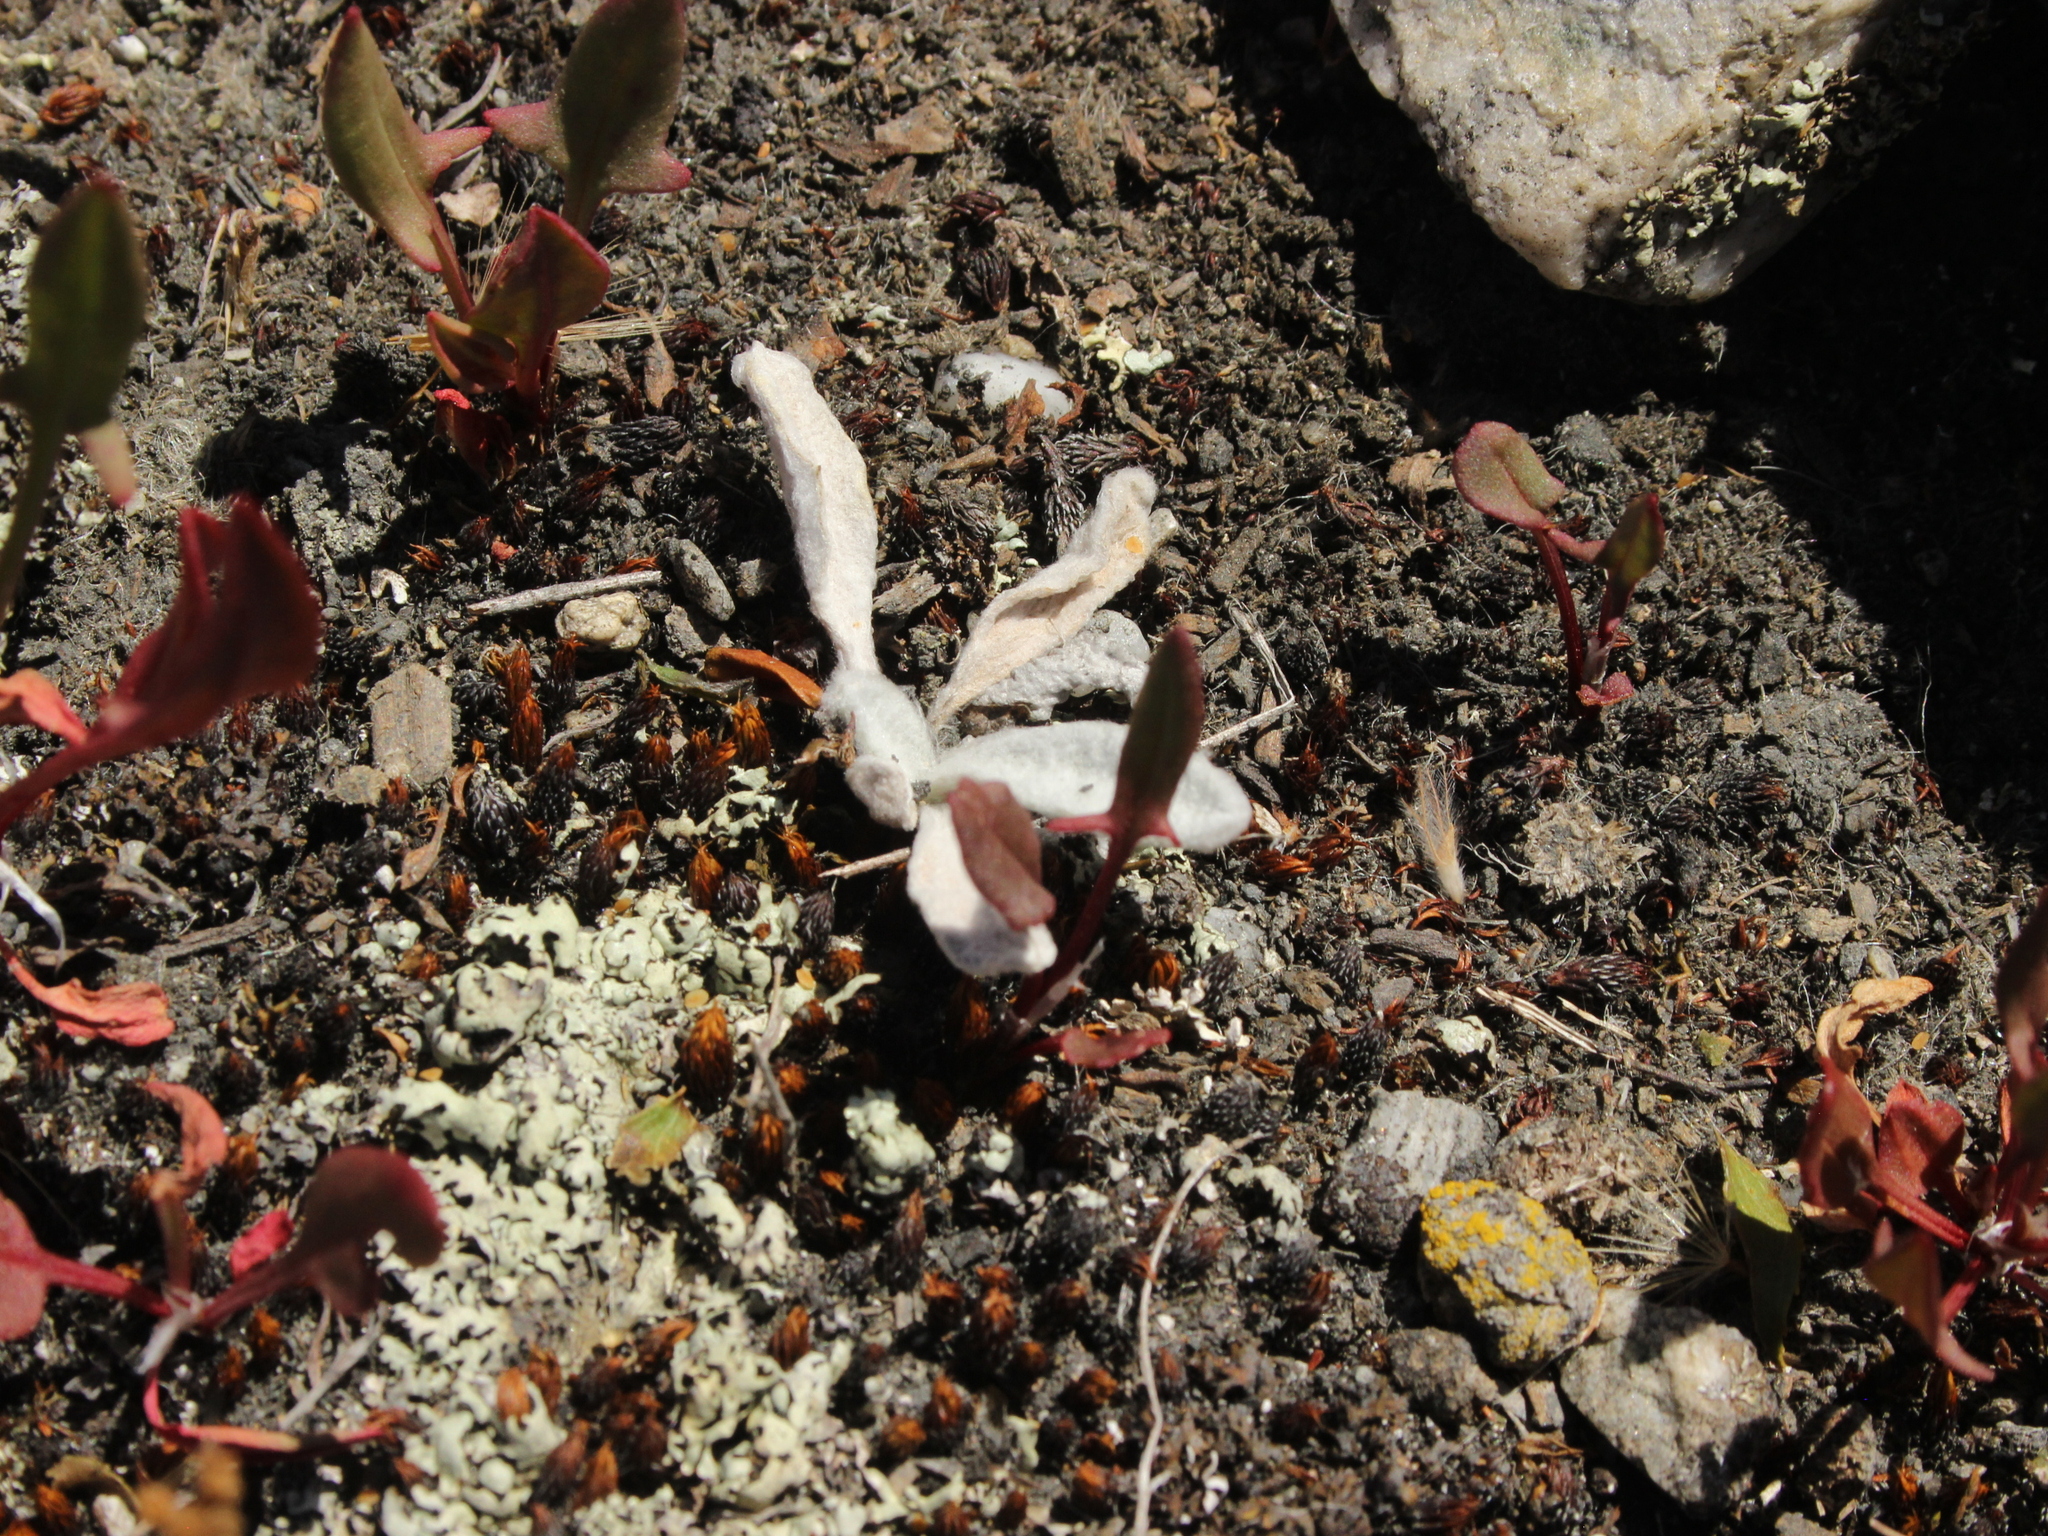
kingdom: Plantae
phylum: Tracheophyta
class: Magnoliopsida
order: Asterales
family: Asteraceae
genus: Craspedia
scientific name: Craspedia
